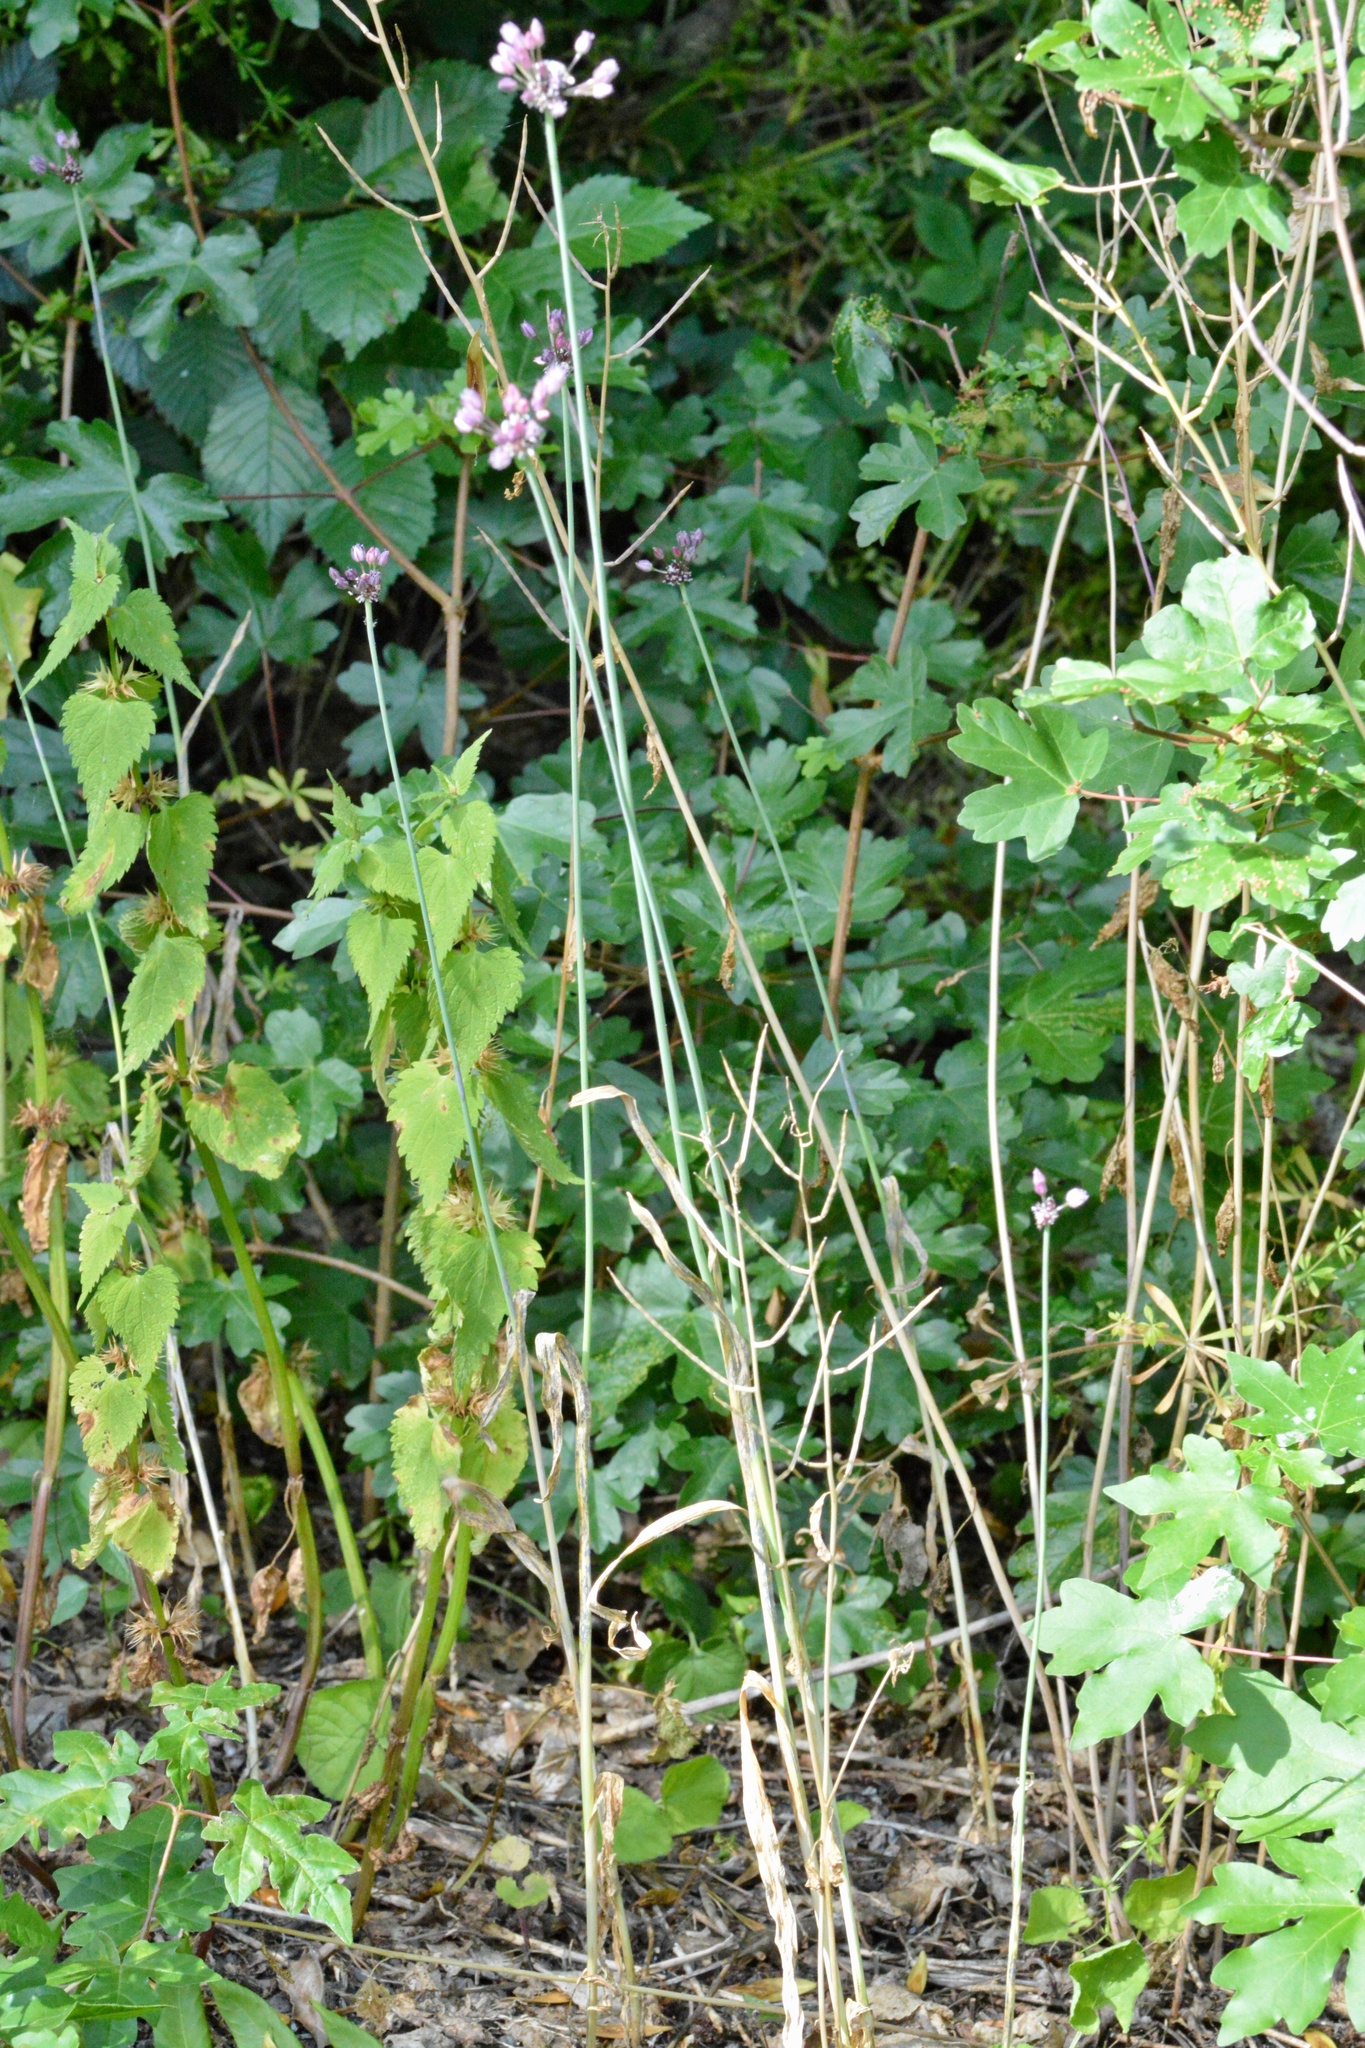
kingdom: Plantae
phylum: Tracheophyta
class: Liliopsida
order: Asparagales
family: Amaryllidaceae
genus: Allium
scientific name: Allium scorodoprasum
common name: Sand leek
